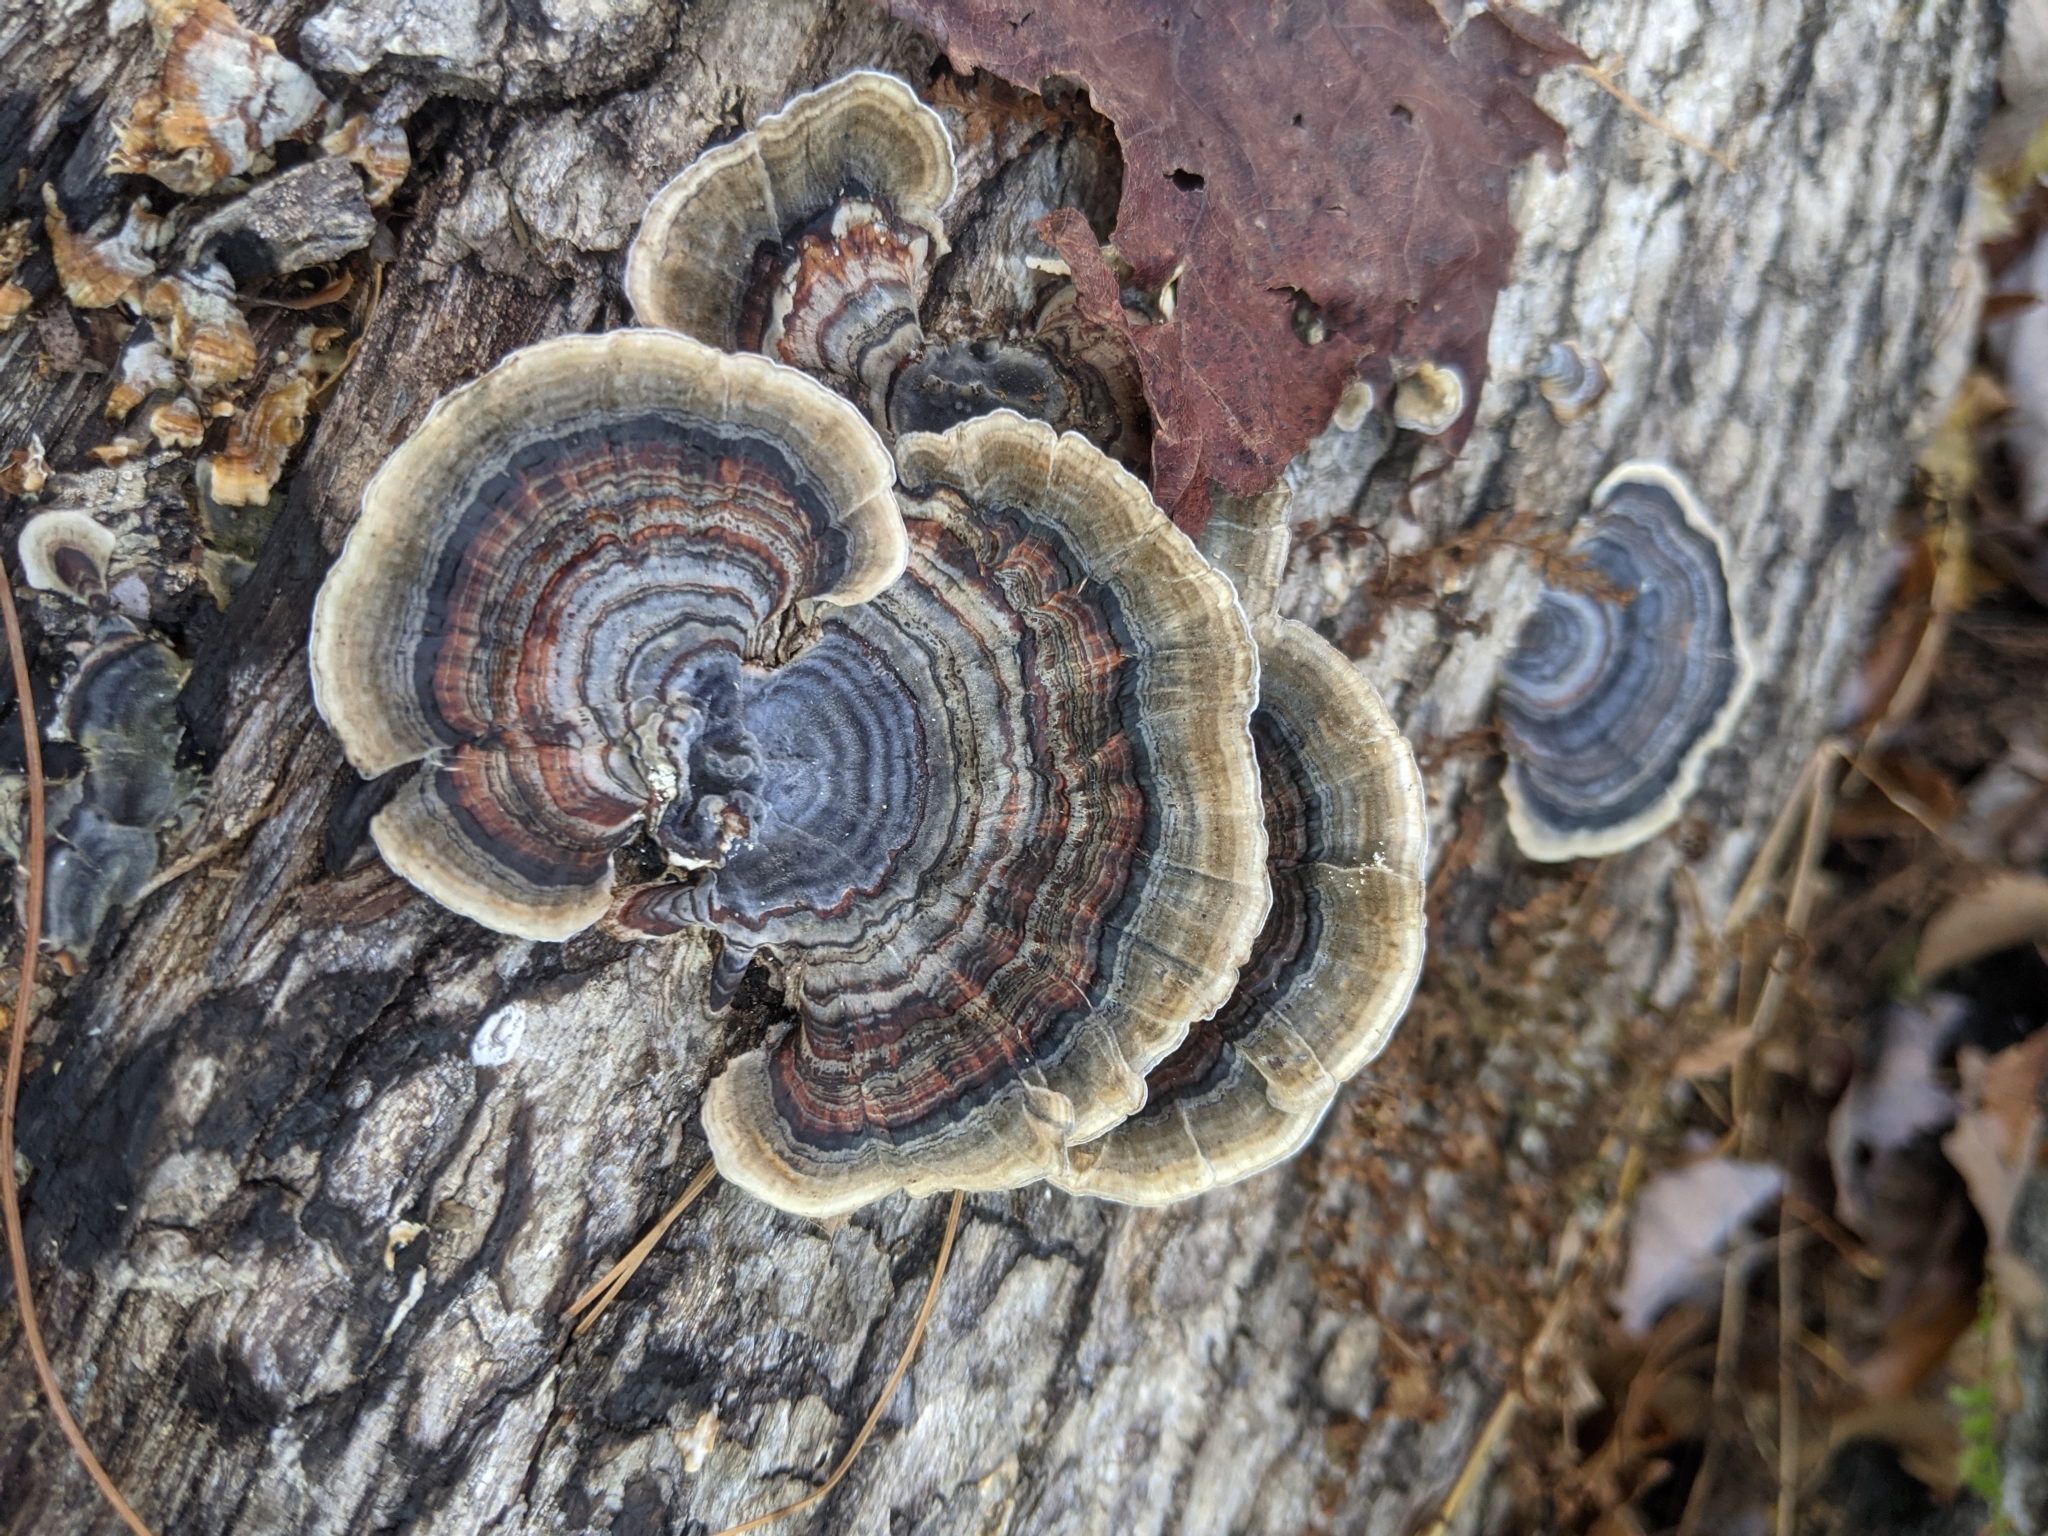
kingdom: Fungi
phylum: Basidiomycota
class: Agaricomycetes
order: Polyporales
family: Polyporaceae
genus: Trametes
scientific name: Trametes versicolor
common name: Turkeytail
